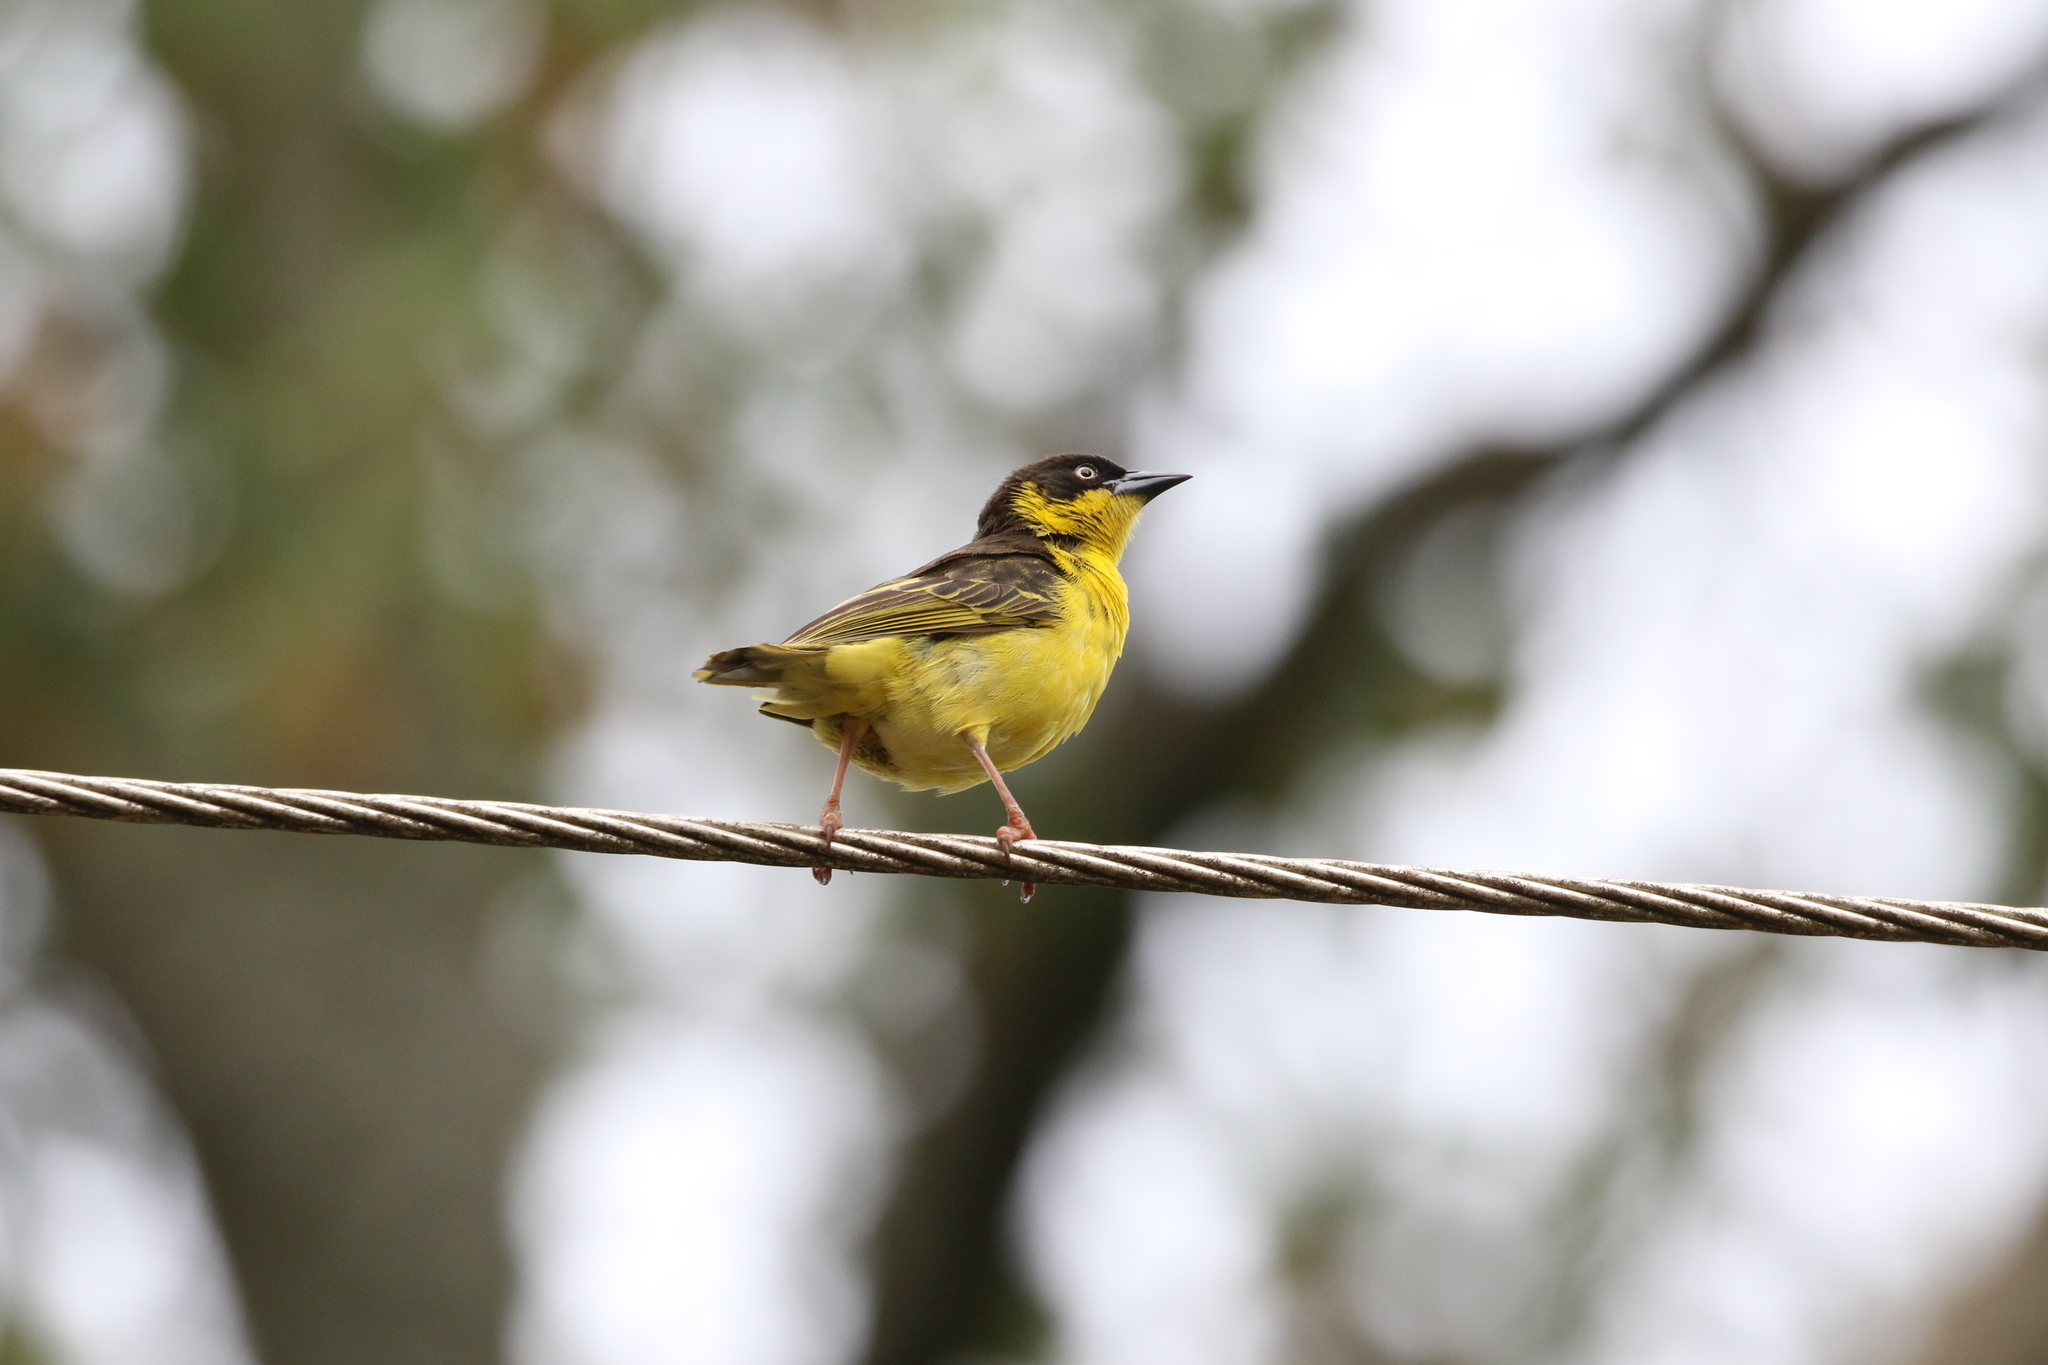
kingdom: Animalia
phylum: Chordata
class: Aves
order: Passeriformes
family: Ploceidae
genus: Ploceus
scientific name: Ploceus baglafecht
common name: Baglafecht weaver
